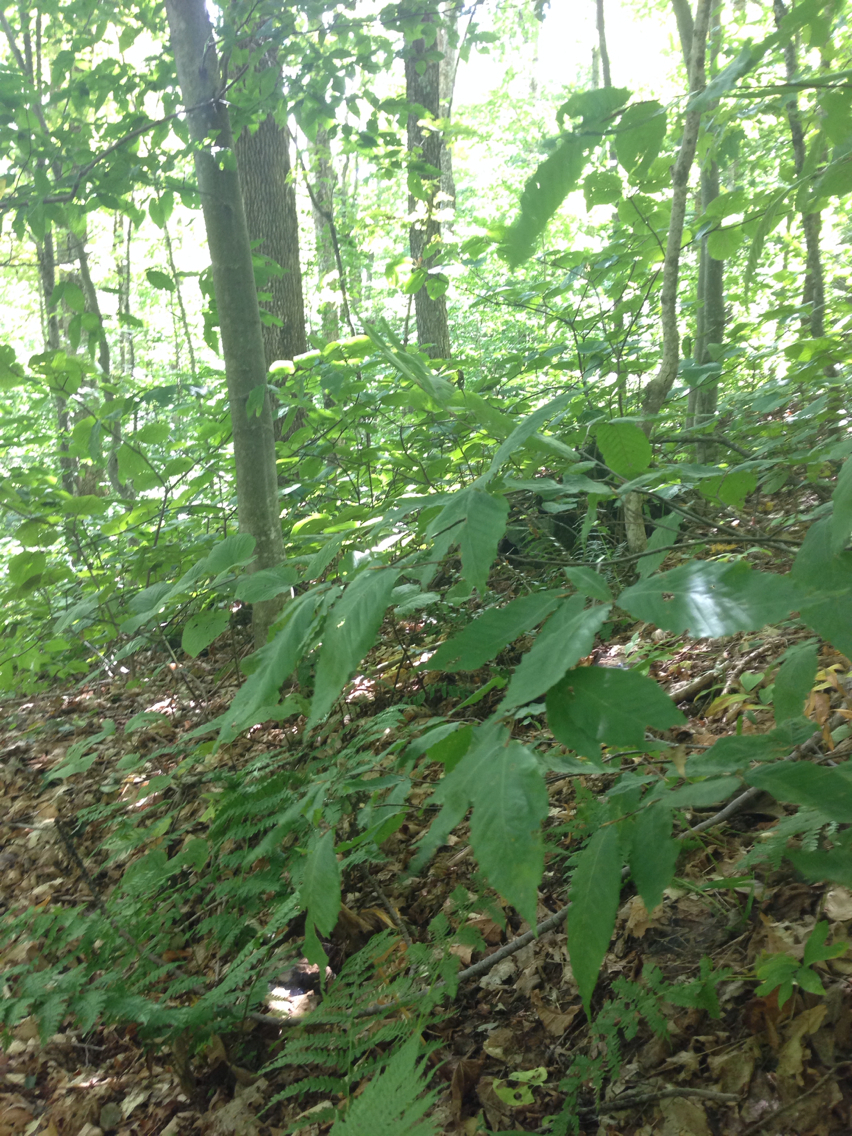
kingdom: Plantae
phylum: Tracheophyta
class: Magnoliopsida
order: Fagales
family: Fagaceae
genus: Fagus
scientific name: Fagus grandifolia
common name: American beech
